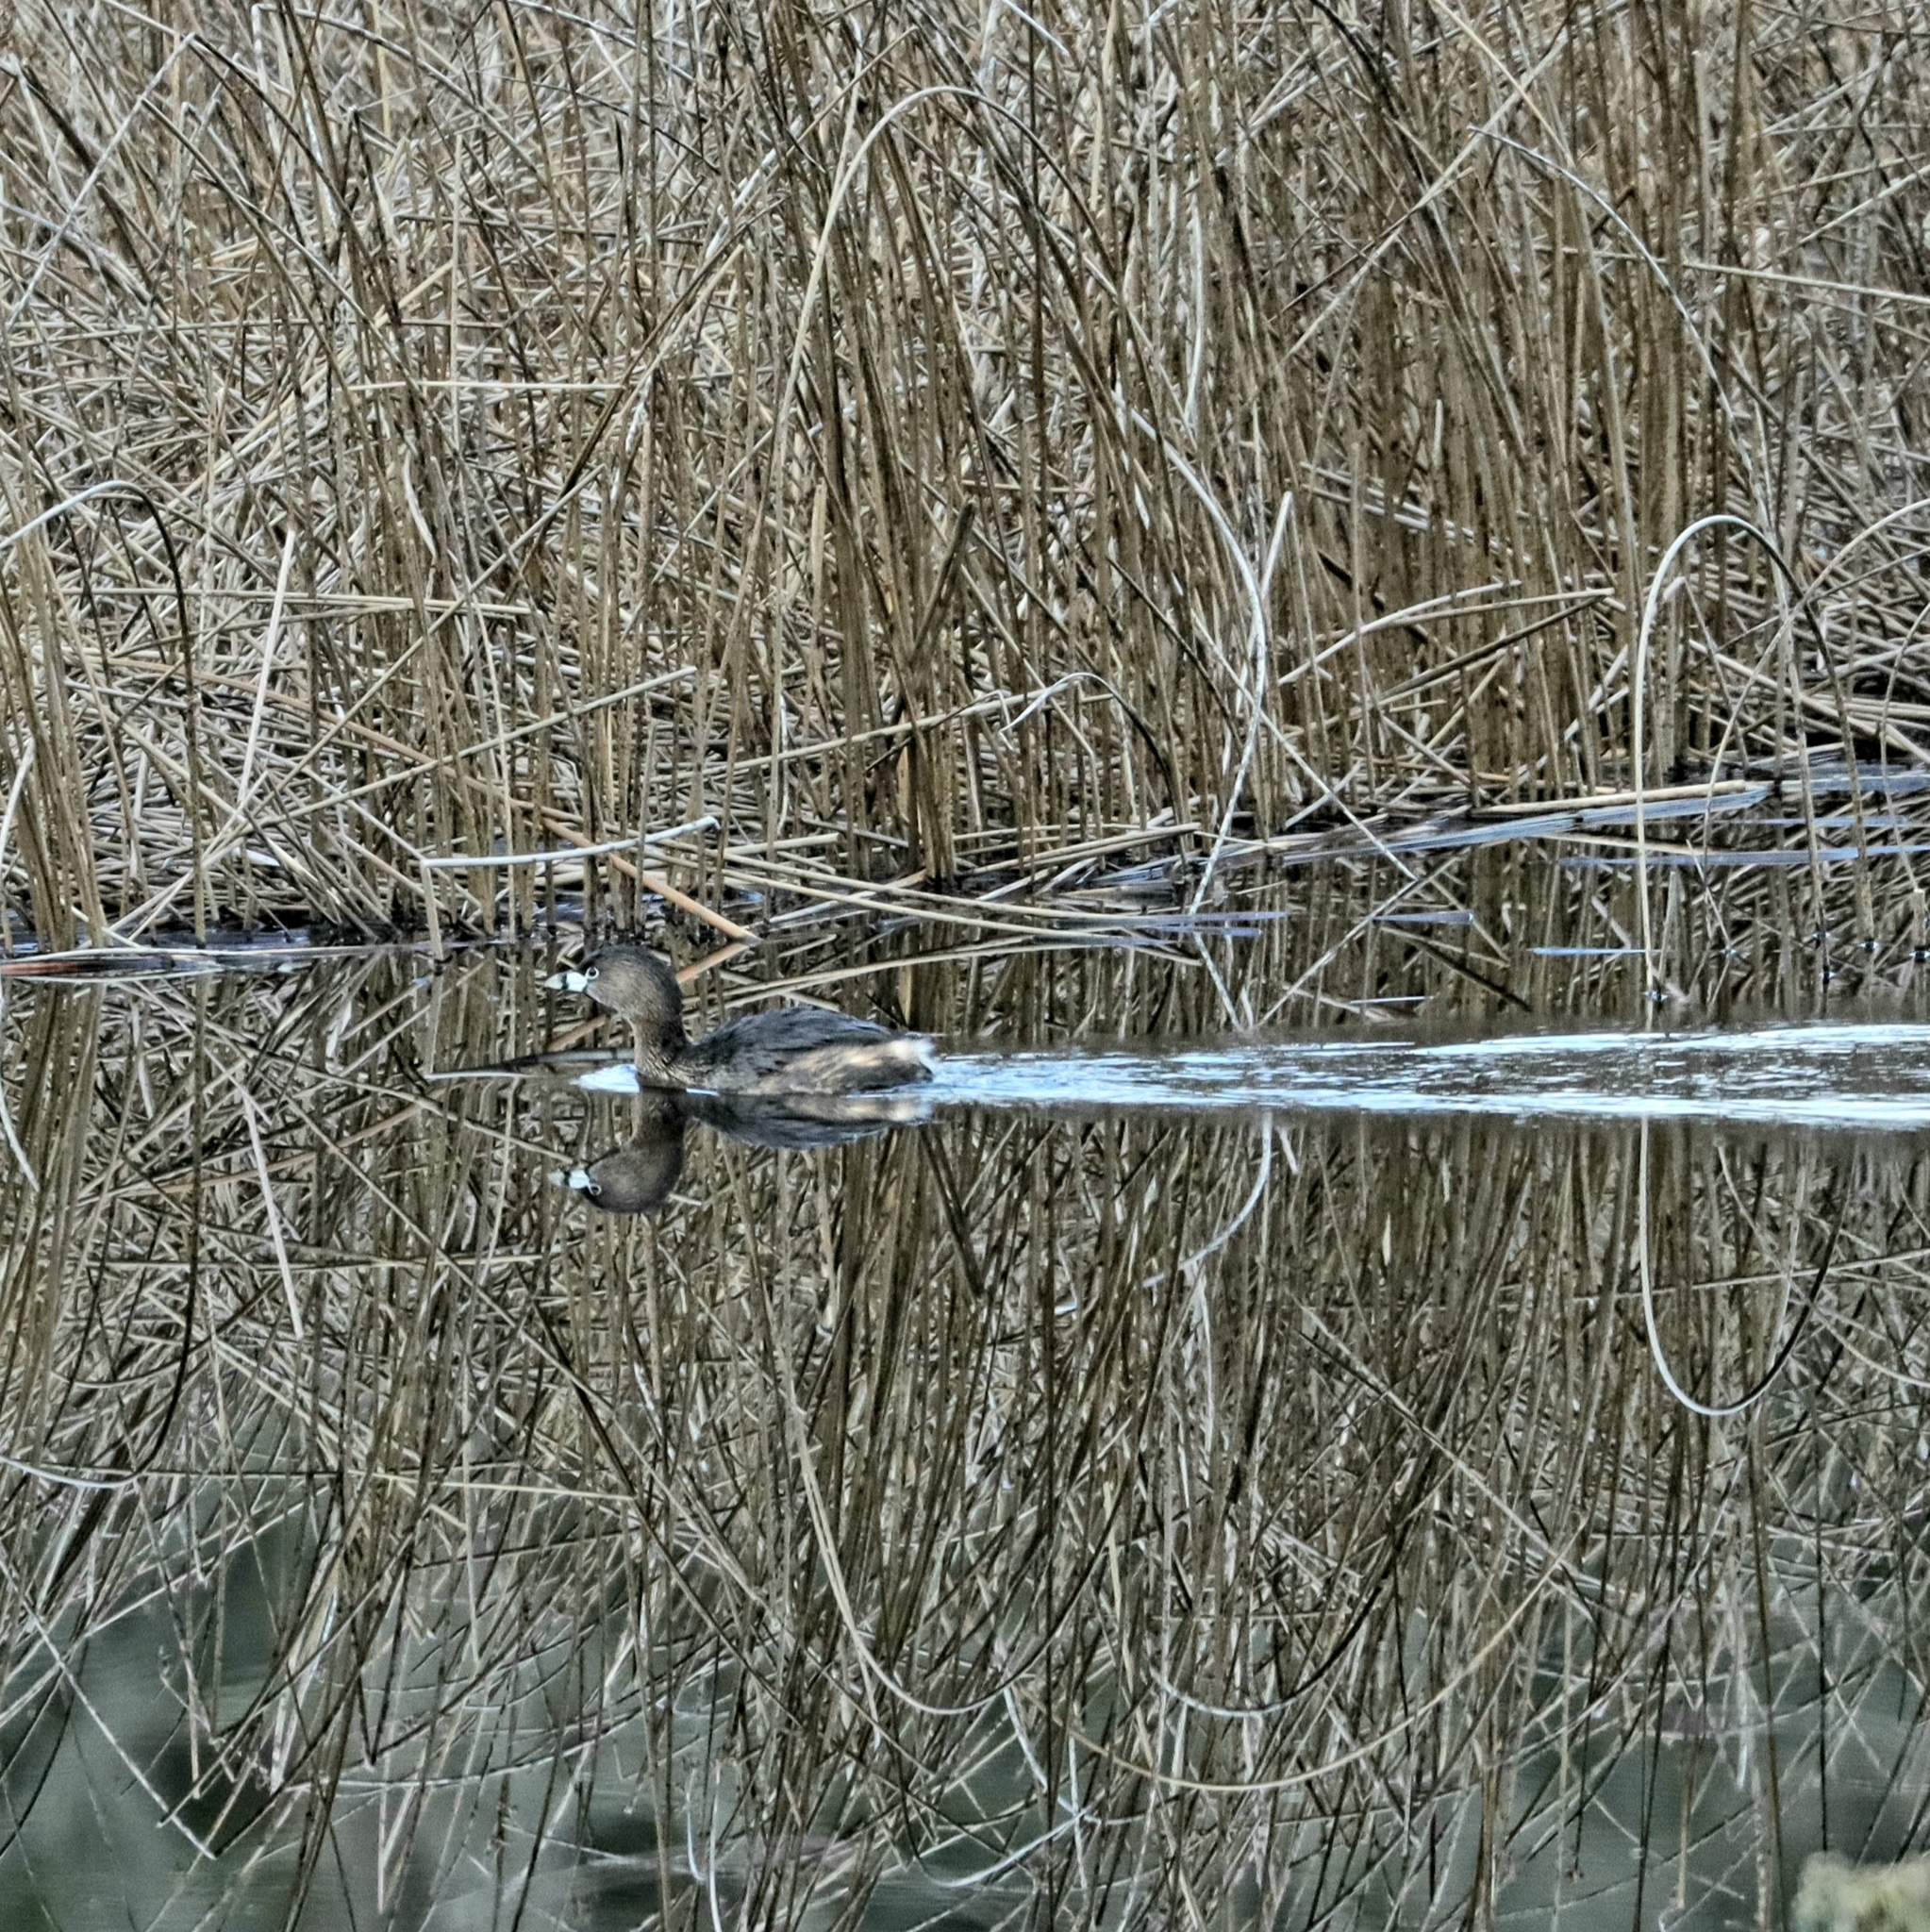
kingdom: Animalia
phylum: Chordata
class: Aves
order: Podicipediformes
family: Podicipedidae
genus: Podilymbus
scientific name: Podilymbus podiceps
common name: Pied-billed grebe
